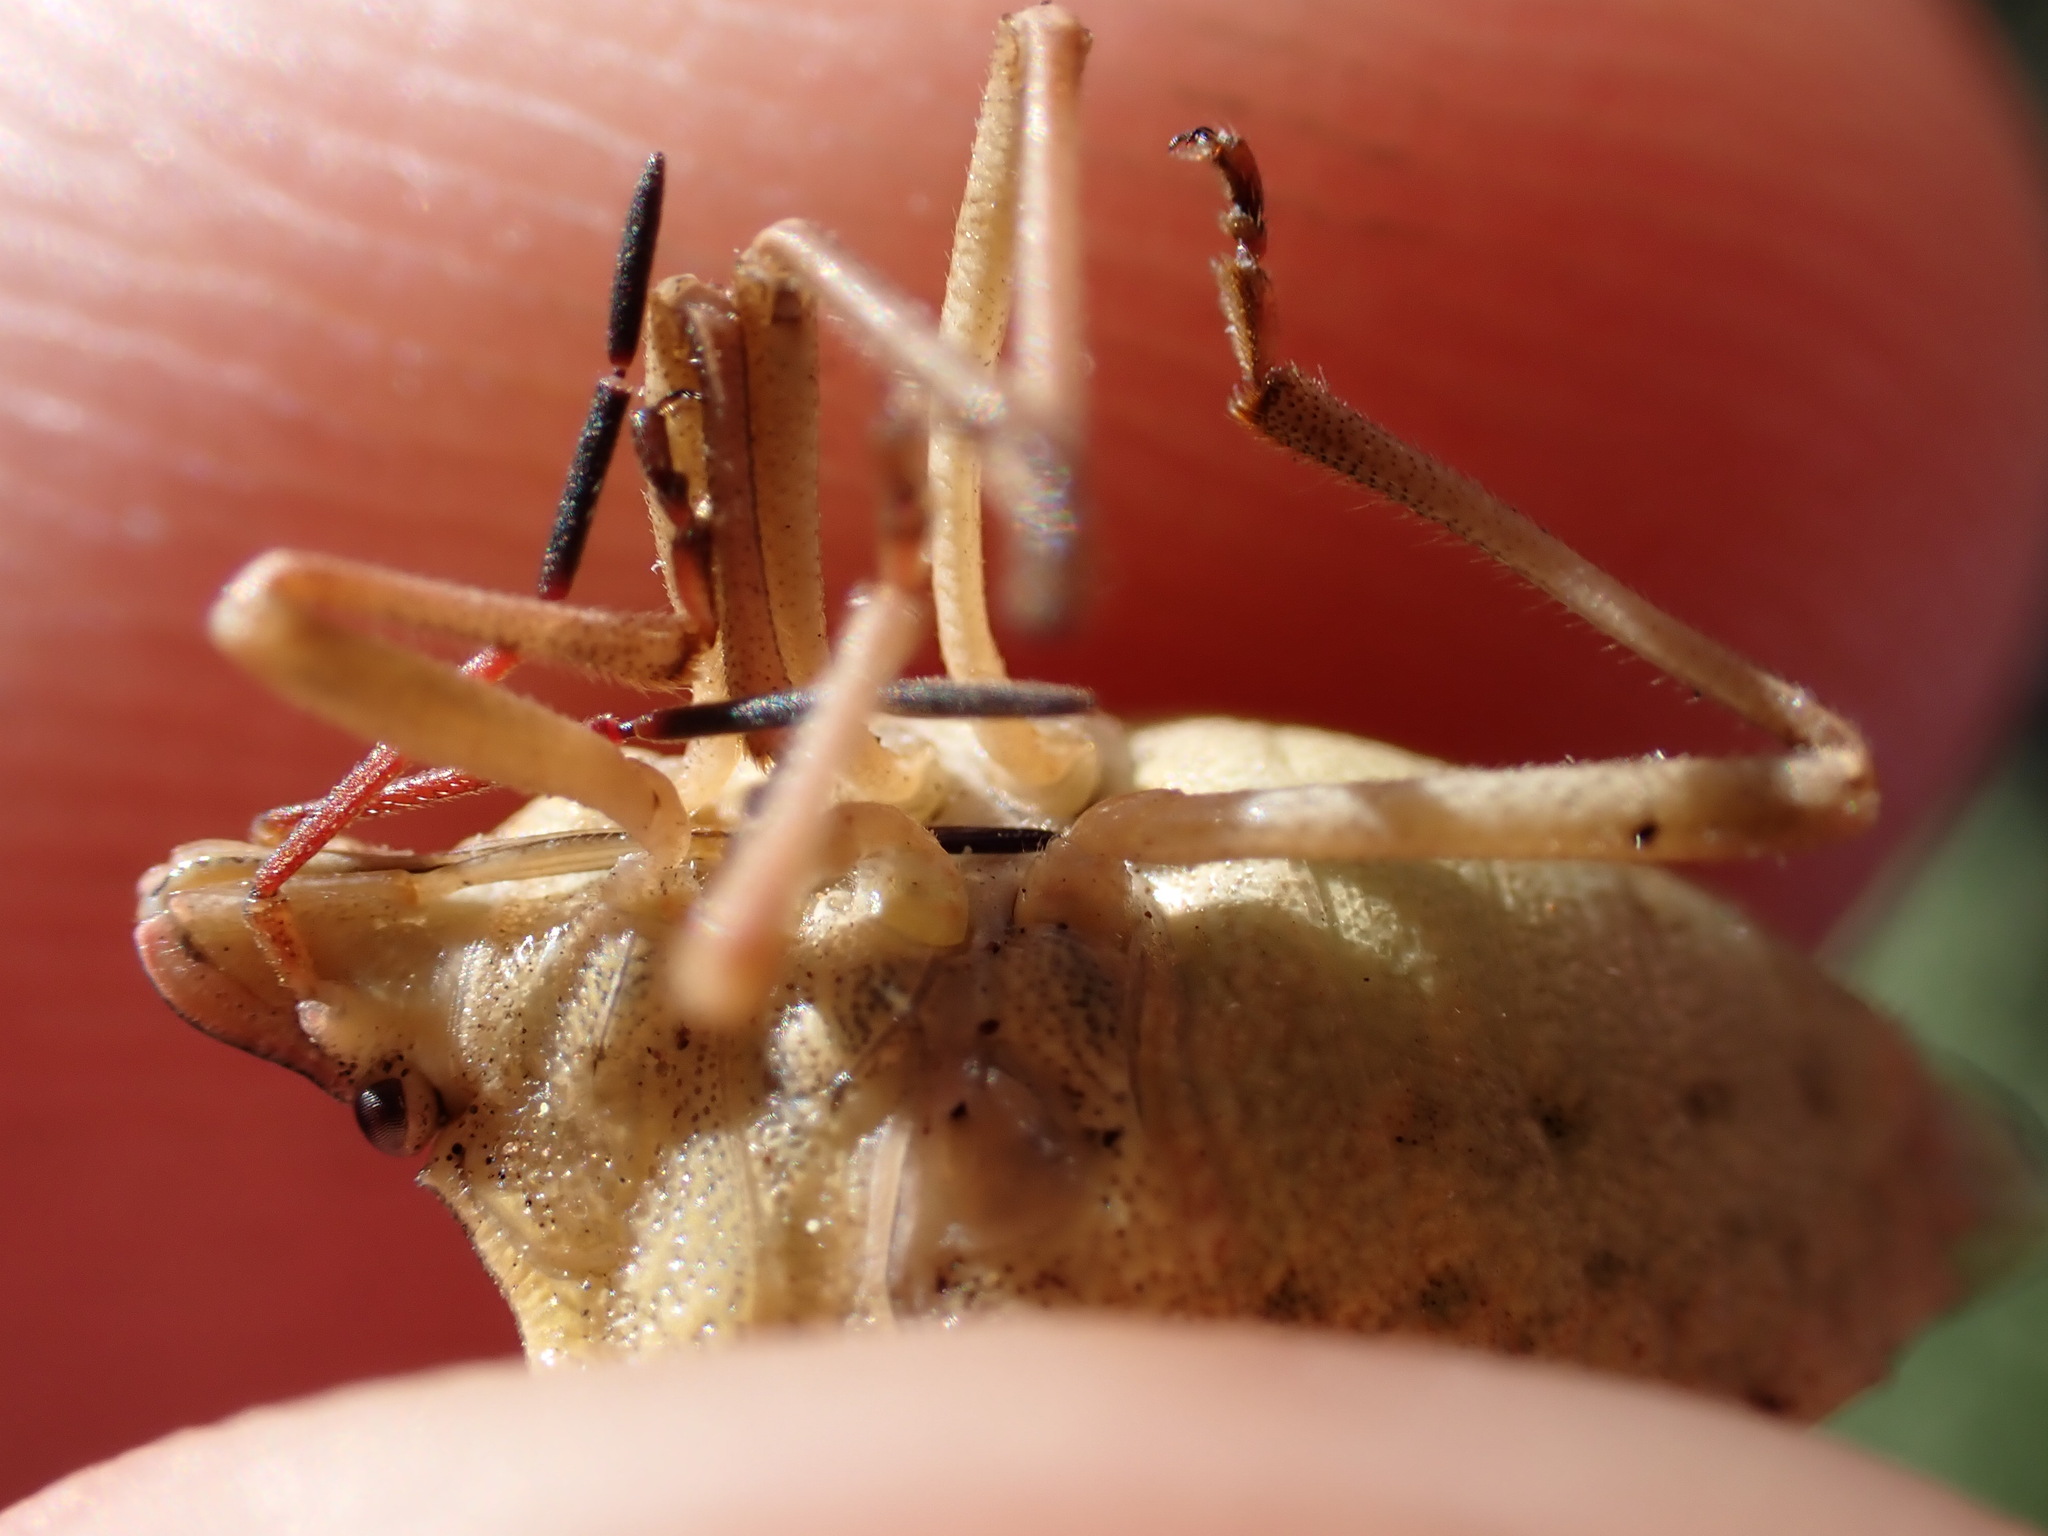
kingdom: Animalia
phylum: Arthropoda
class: Insecta
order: Hemiptera
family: Miridae
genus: Orthops
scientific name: Orthops kalmii
